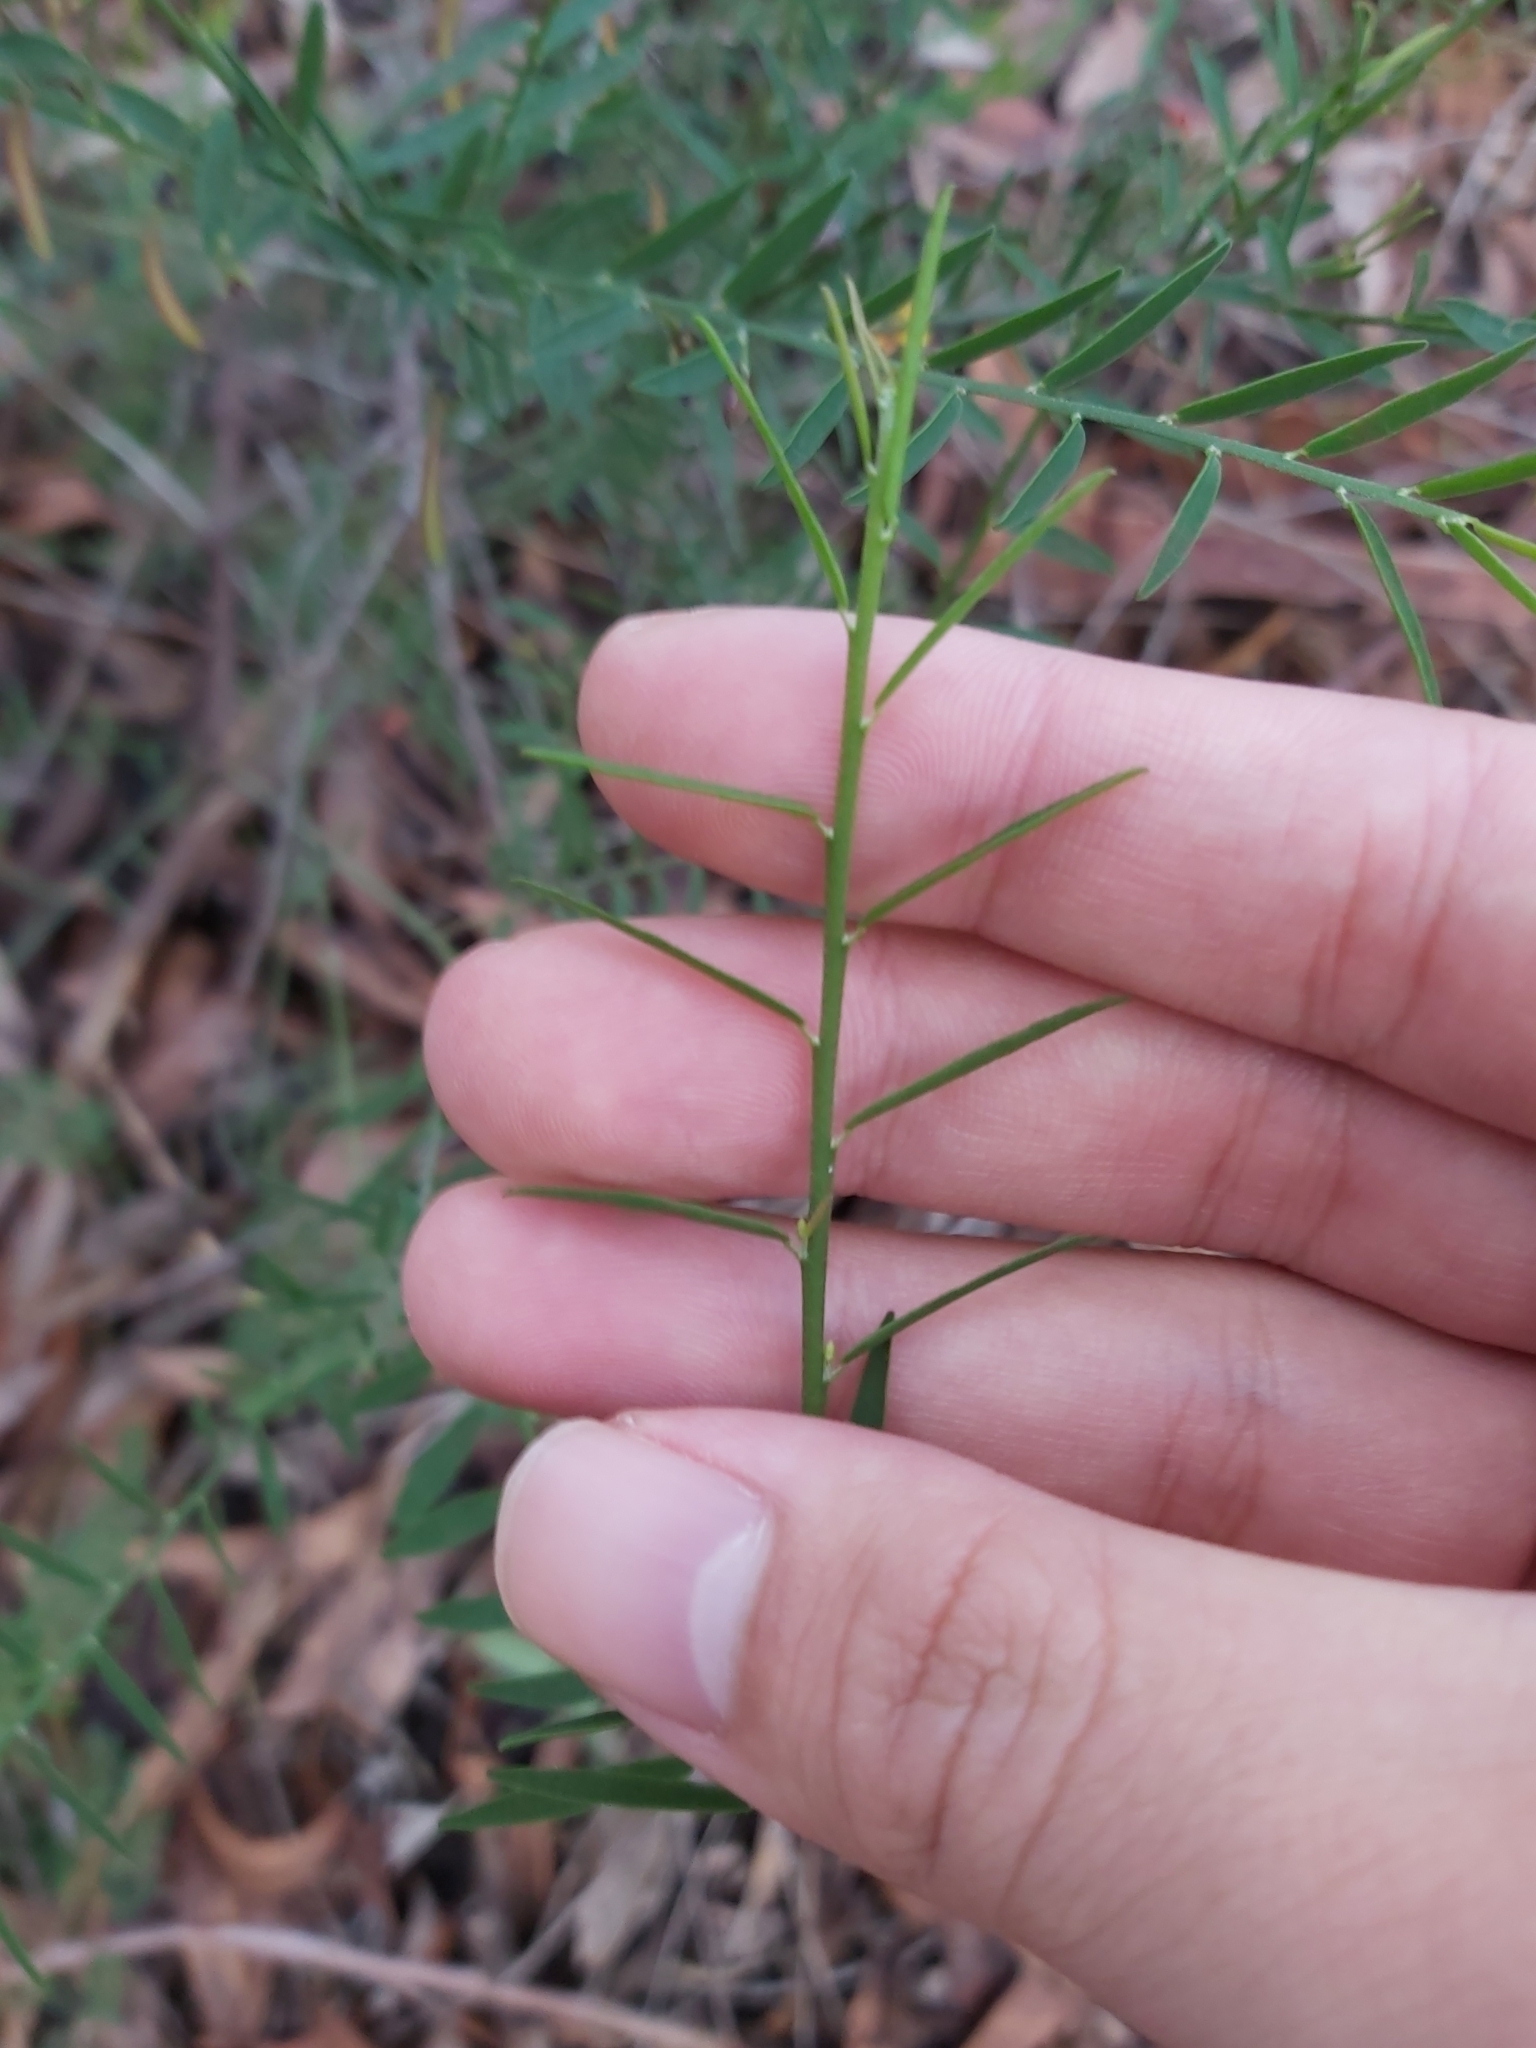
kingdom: Plantae
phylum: Tracheophyta
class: Magnoliopsida
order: Fabales
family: Fabaceae
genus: Bossiaea
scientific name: Bossiaea heterophylla
